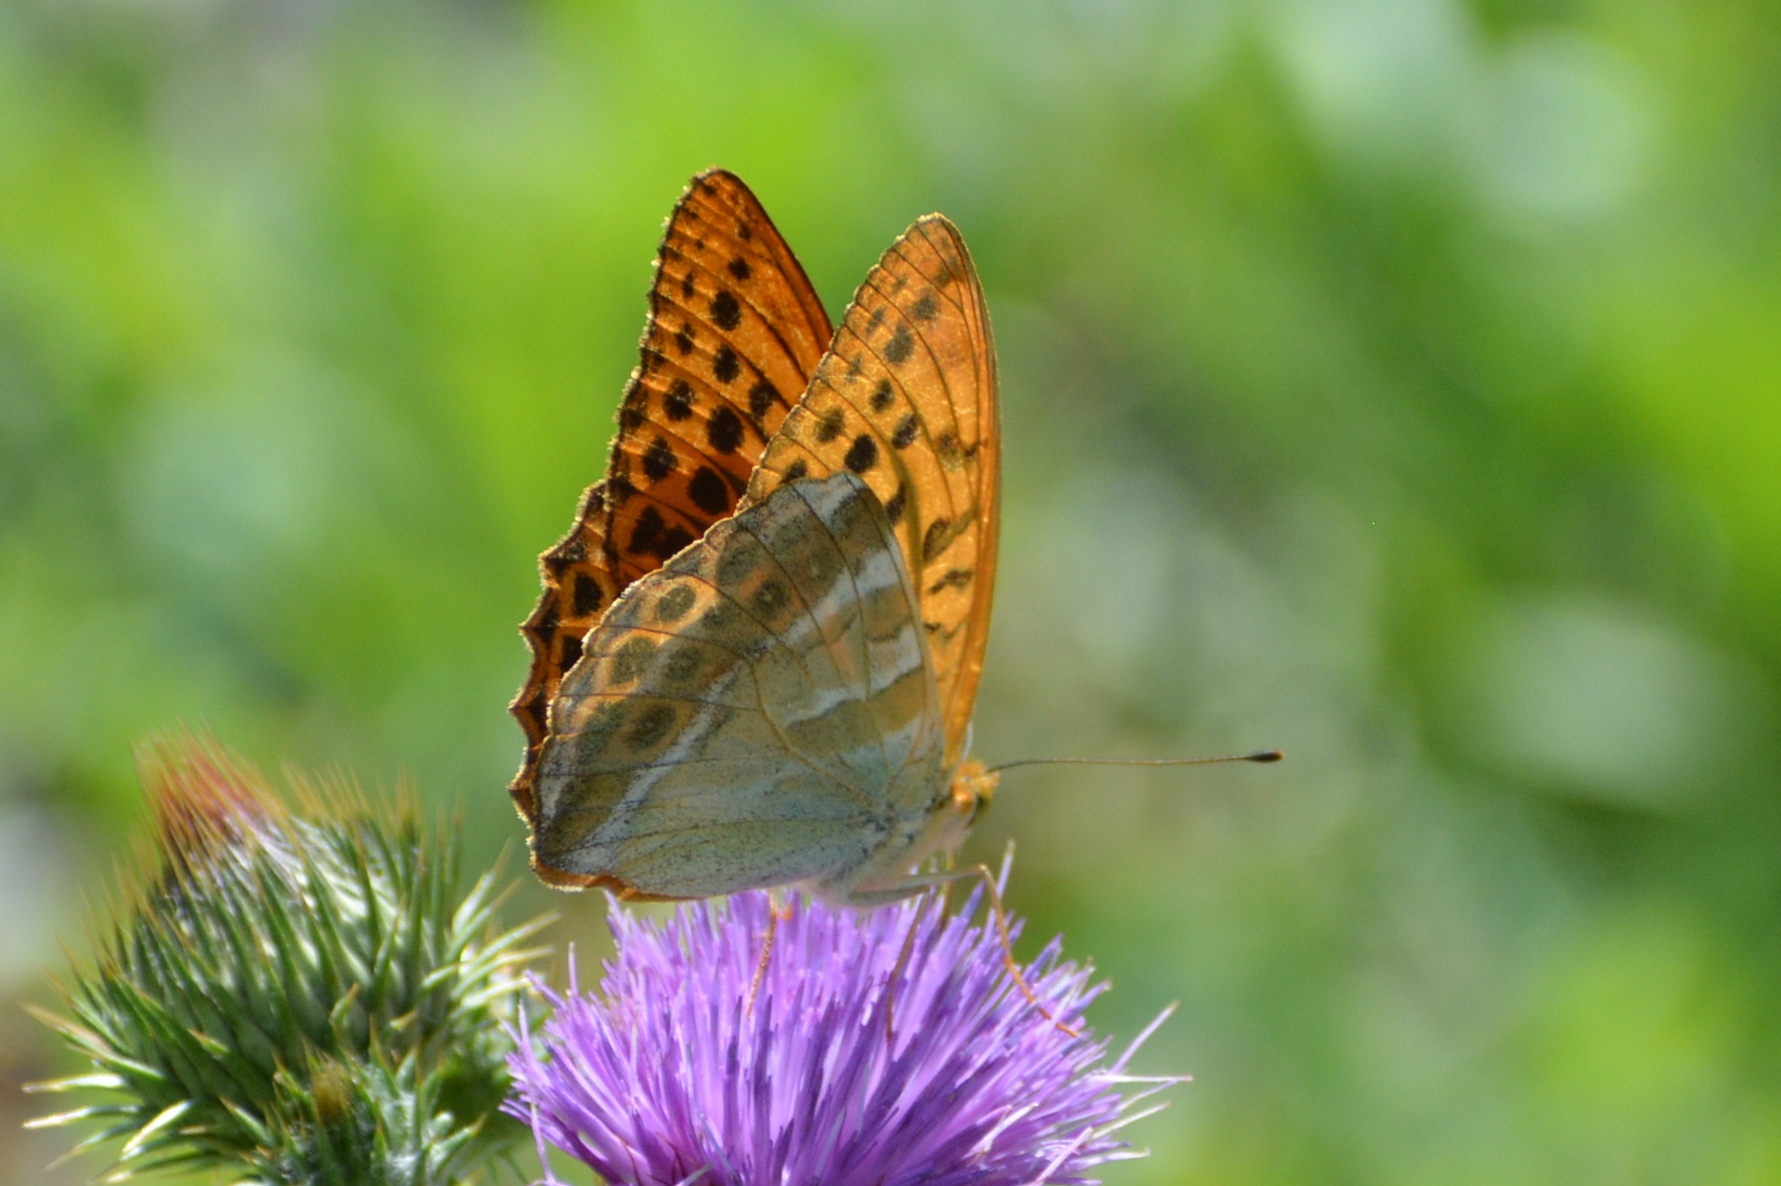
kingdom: Animalia
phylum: Arthropoda
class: Insecta
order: Lepidoptera
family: Nymphalidae
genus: Argynnis
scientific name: Argynnis paphia
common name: Silver-washed fritillary
